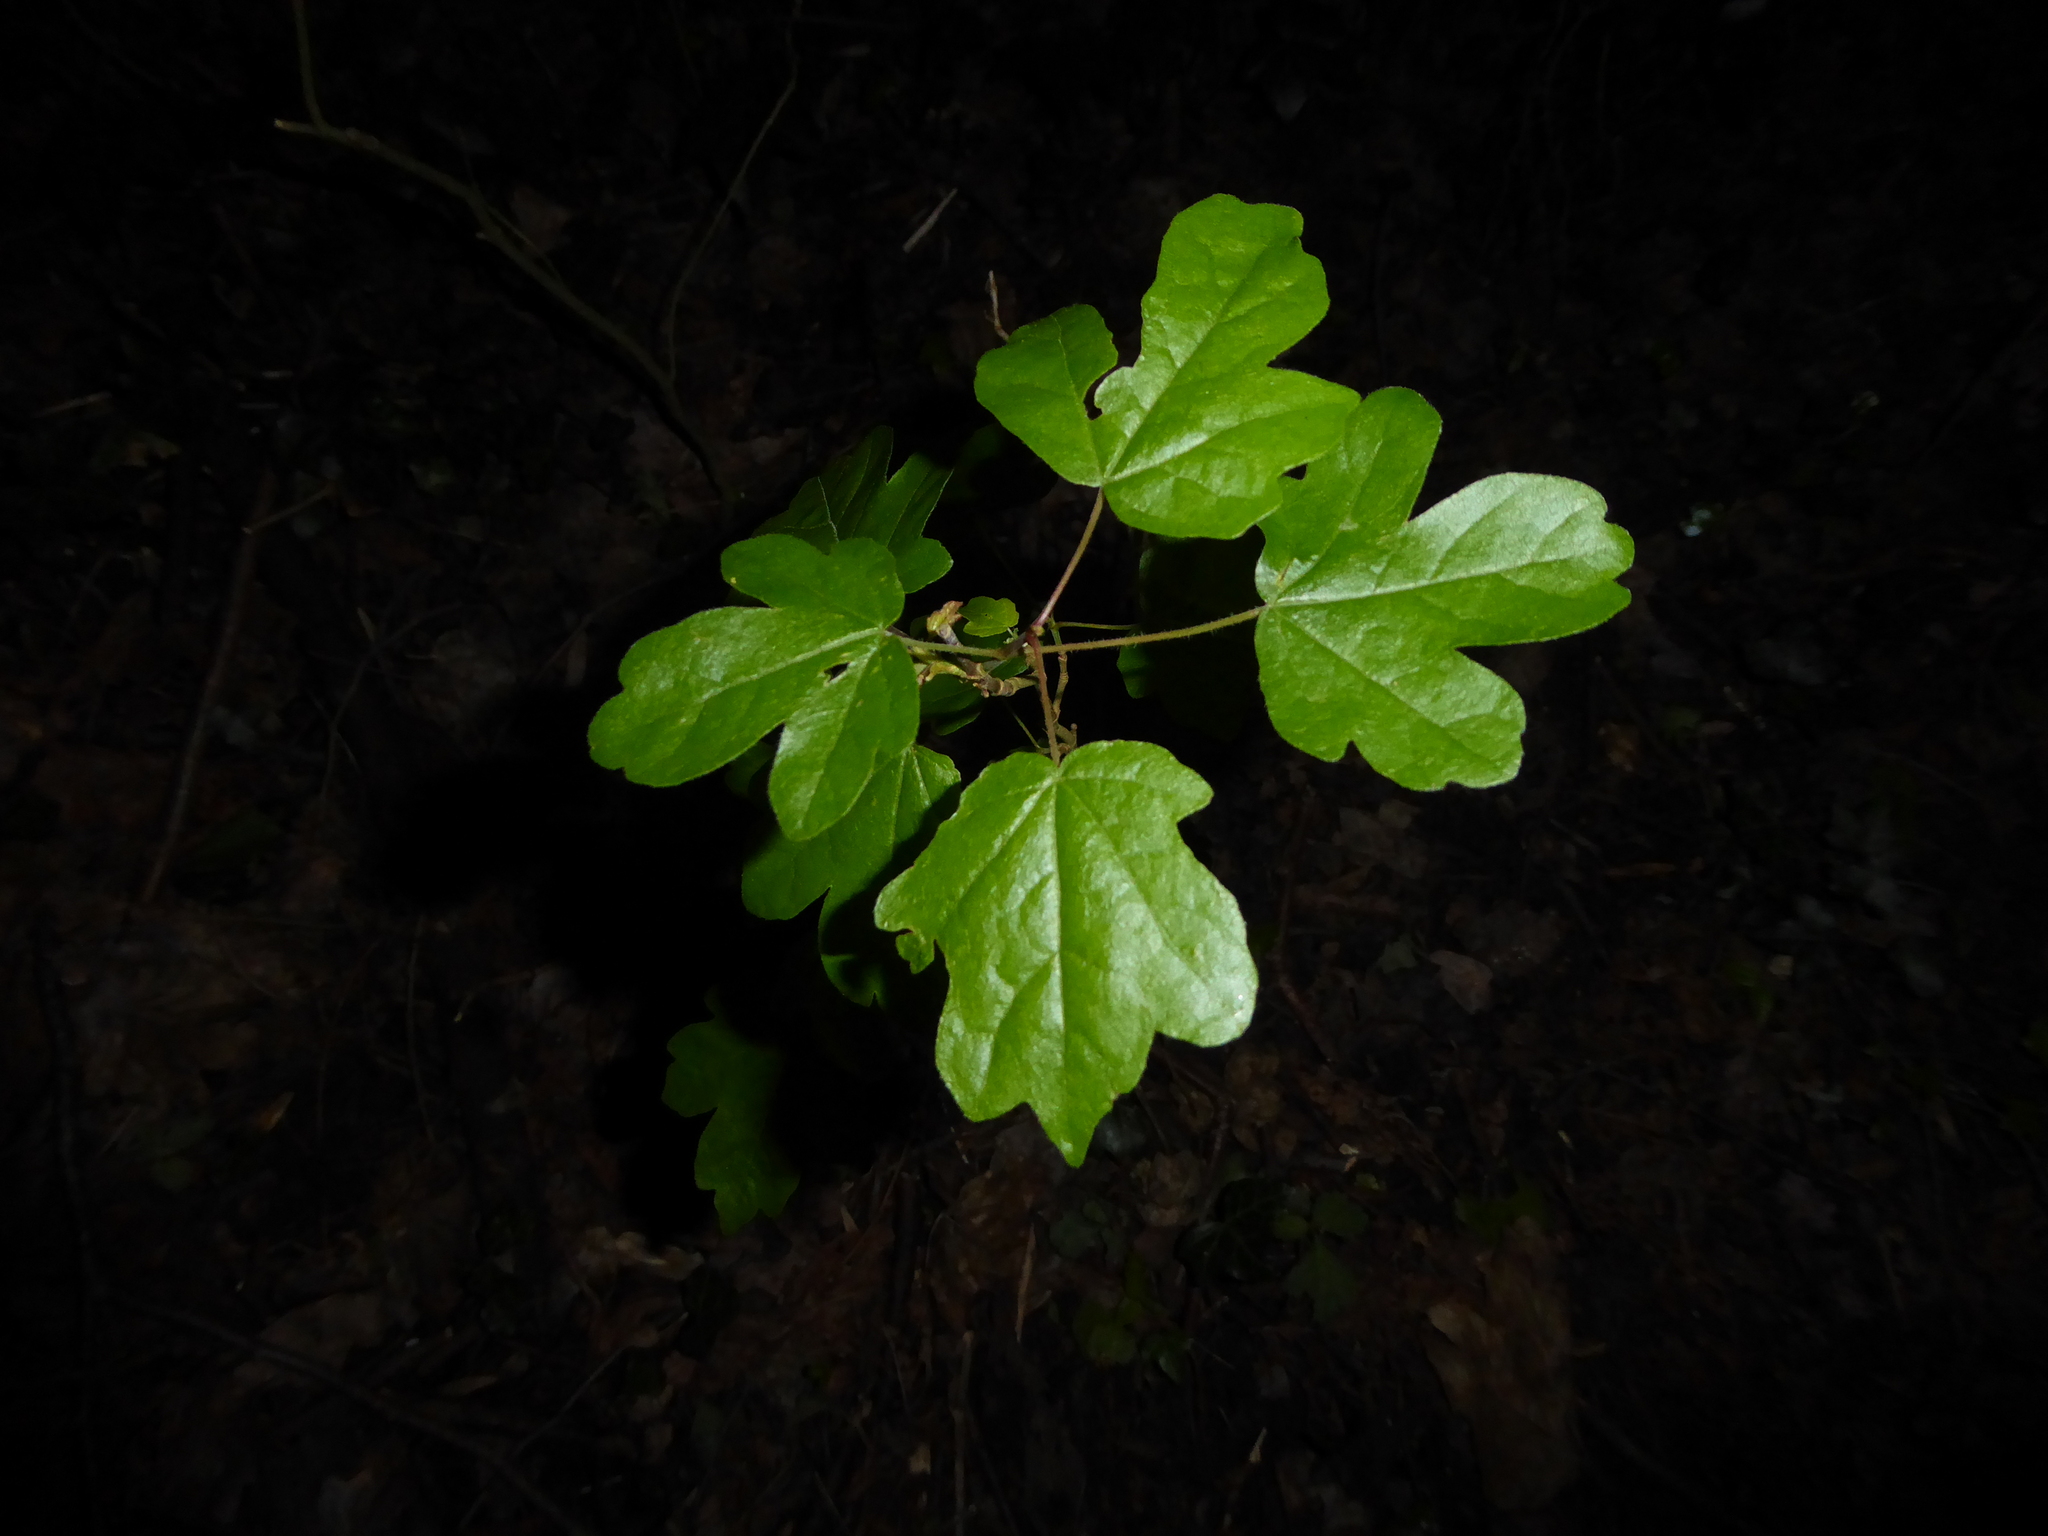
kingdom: Plantae
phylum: Tracheophyta
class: Magnoliopsida
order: Sapindales
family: Sapindaceae
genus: Acer
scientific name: Acer campestre
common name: Field maple
